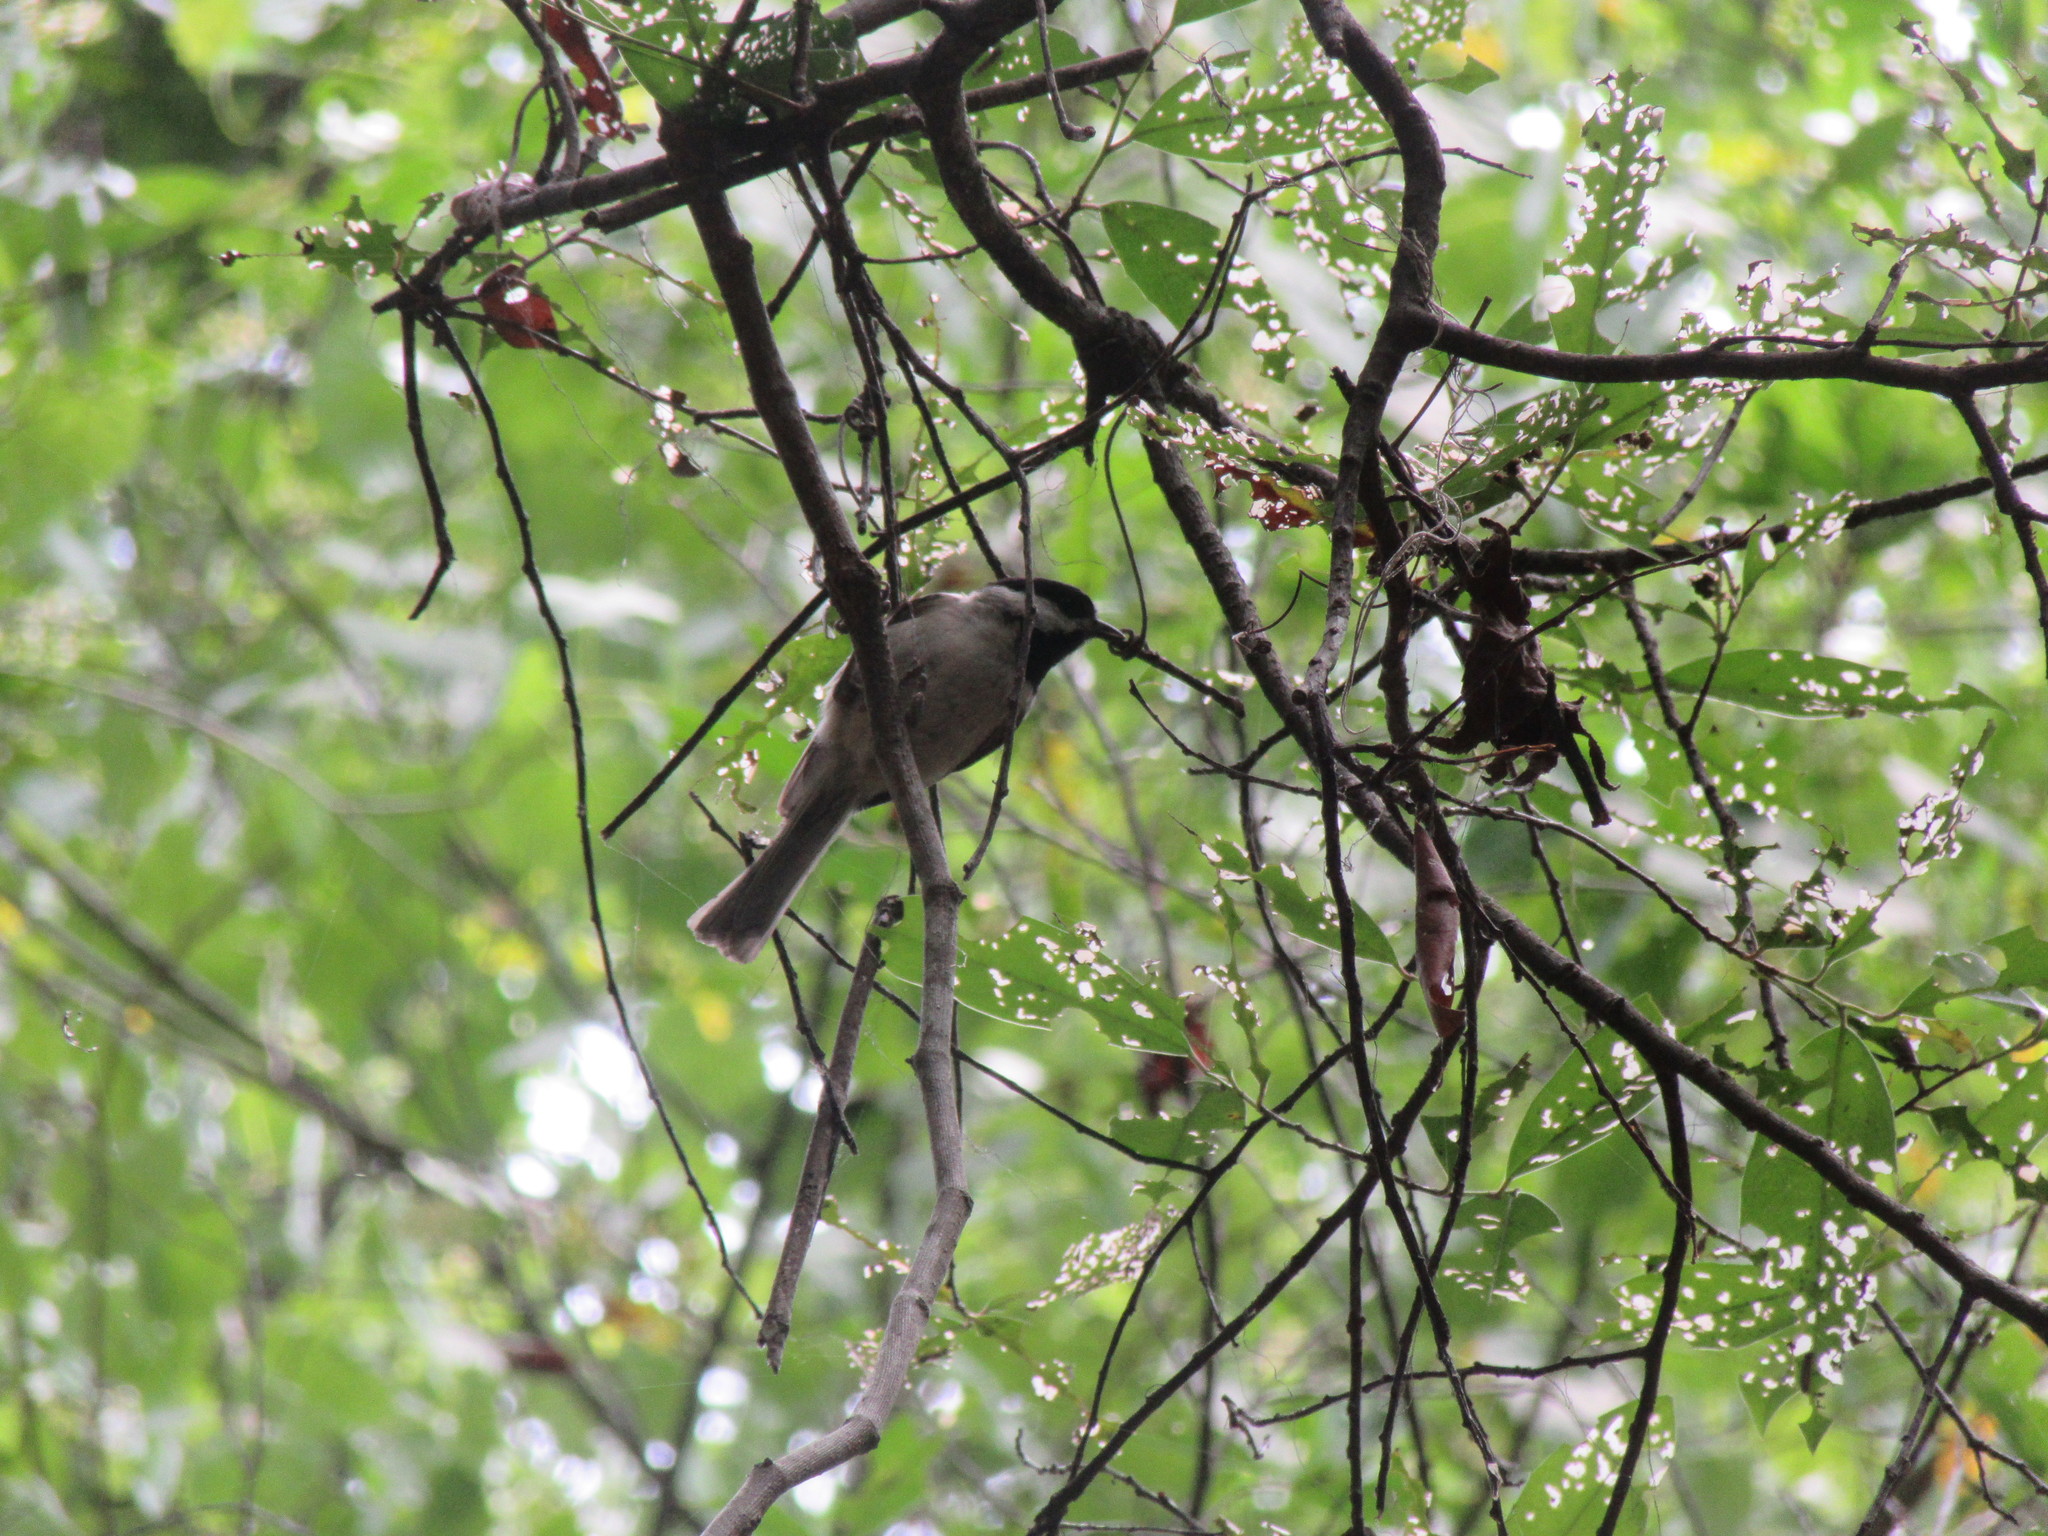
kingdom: Animalia
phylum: Chordata
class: Aves
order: Passeriformes
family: Paridae
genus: Poecile
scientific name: Poecile carolinensis
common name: Carolina chickadee
